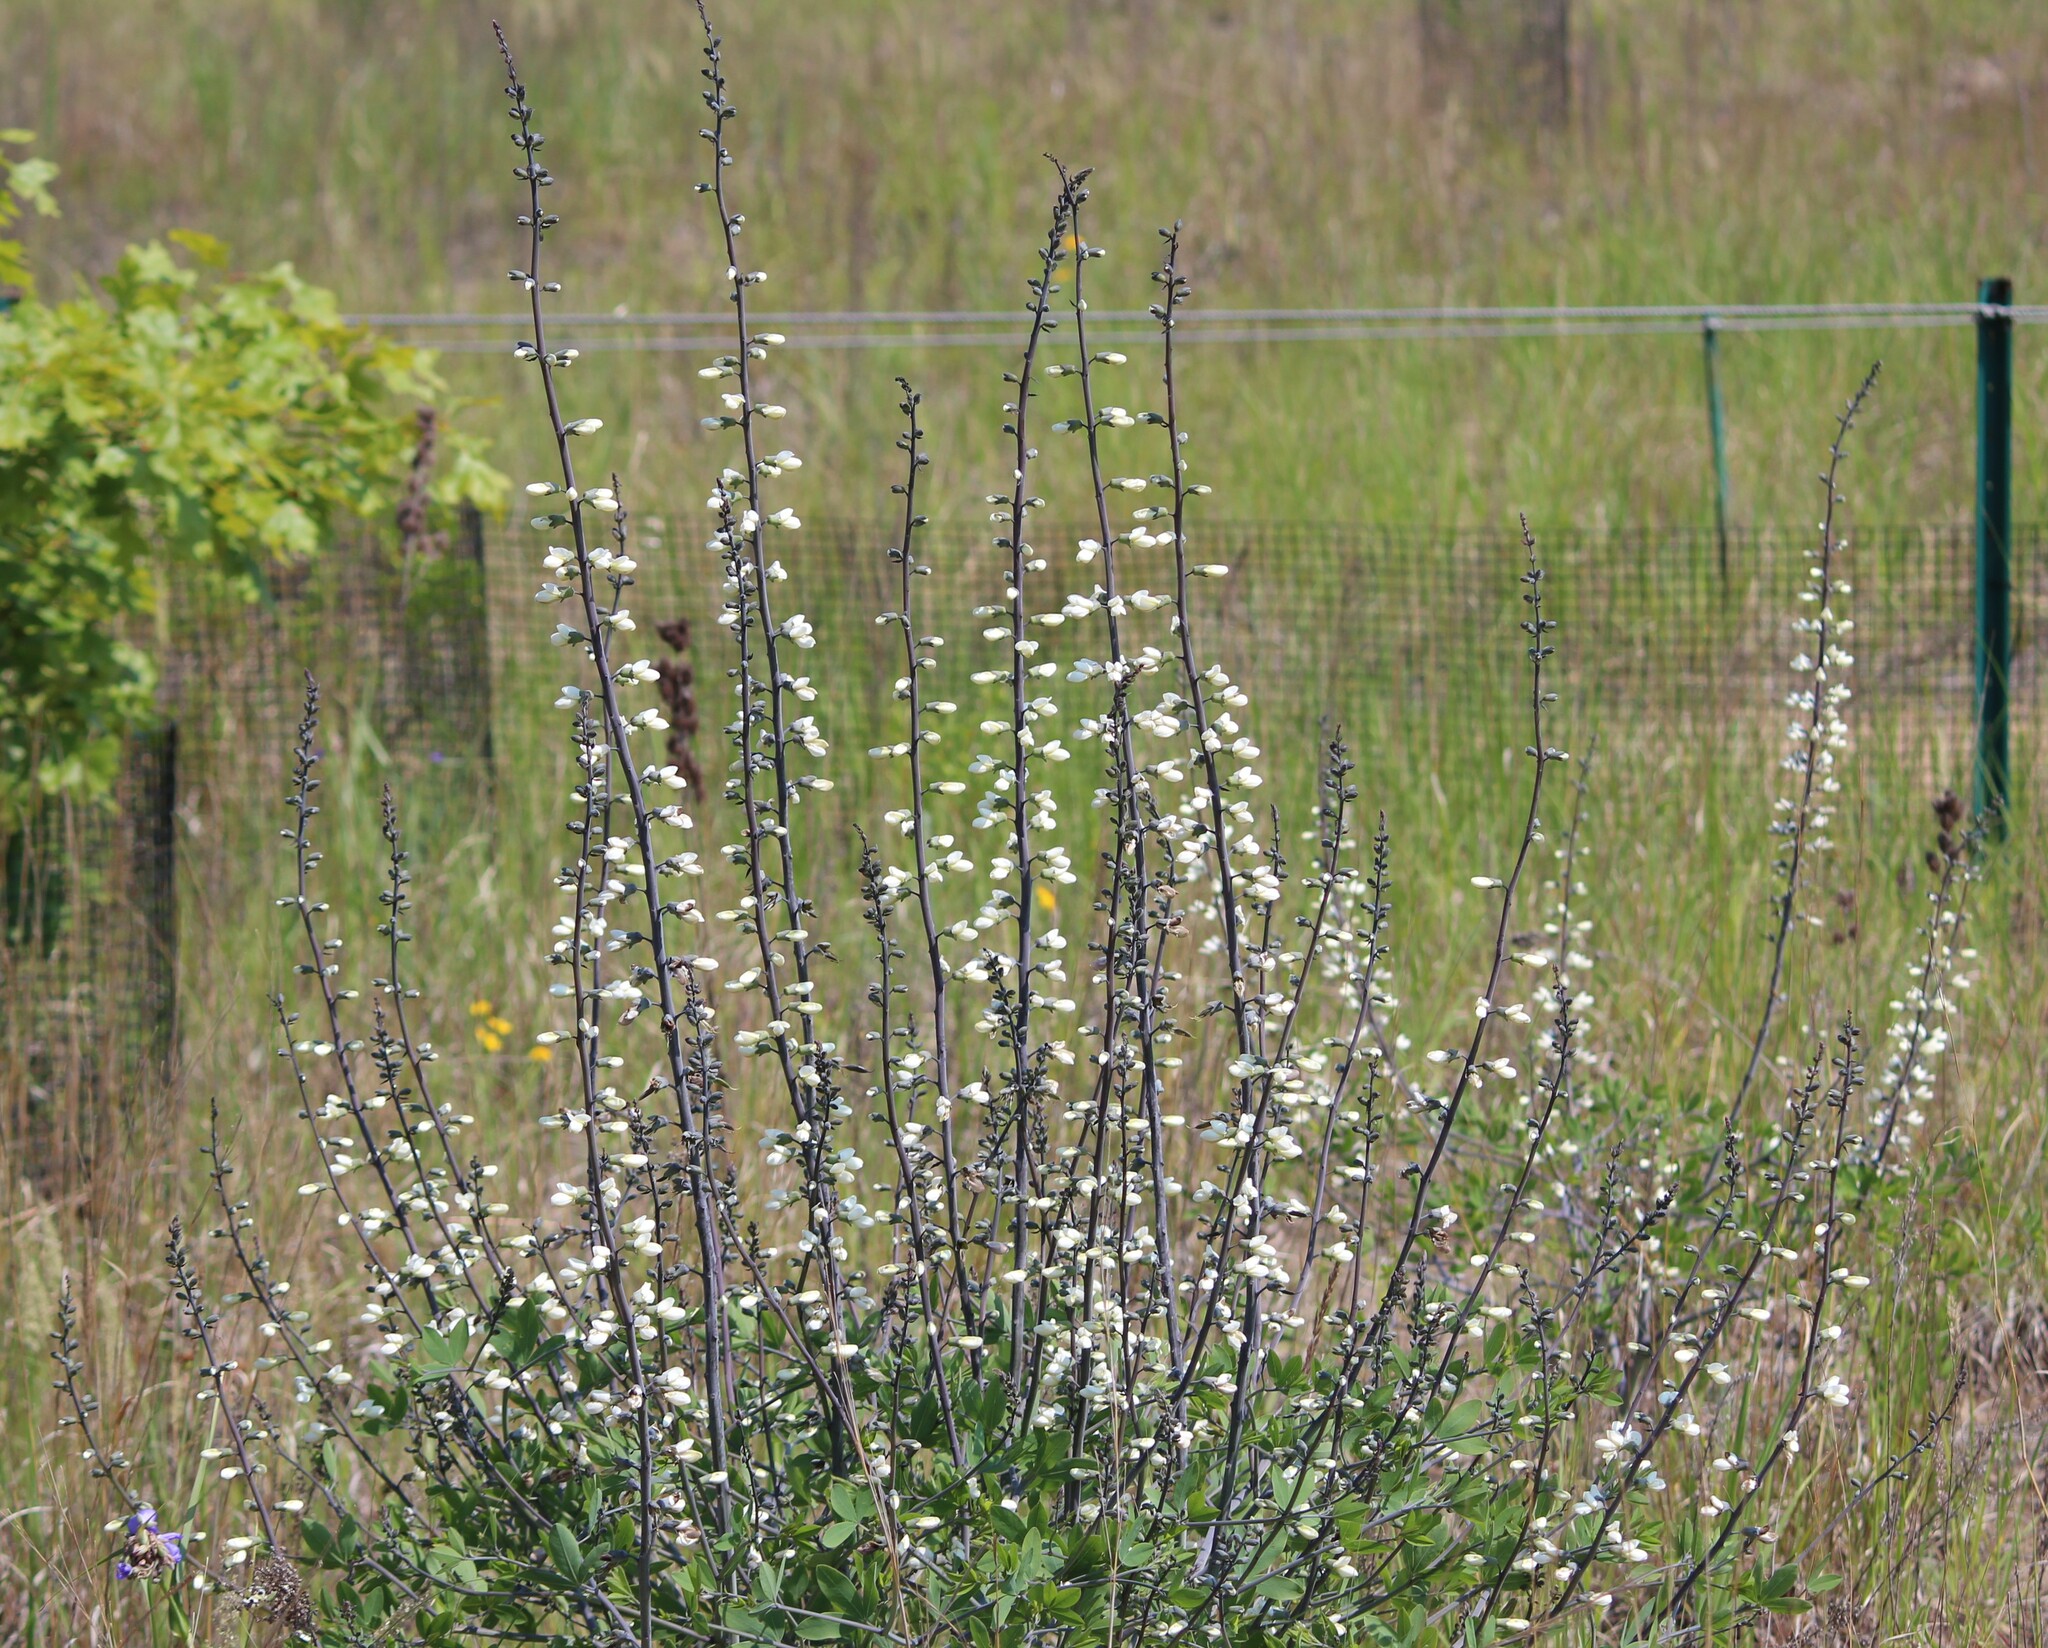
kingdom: Plantae
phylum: Tracheophyta
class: Magnoliopsida
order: Fabales
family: Fabaceae
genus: Baptisia
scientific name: Baptisia alba
